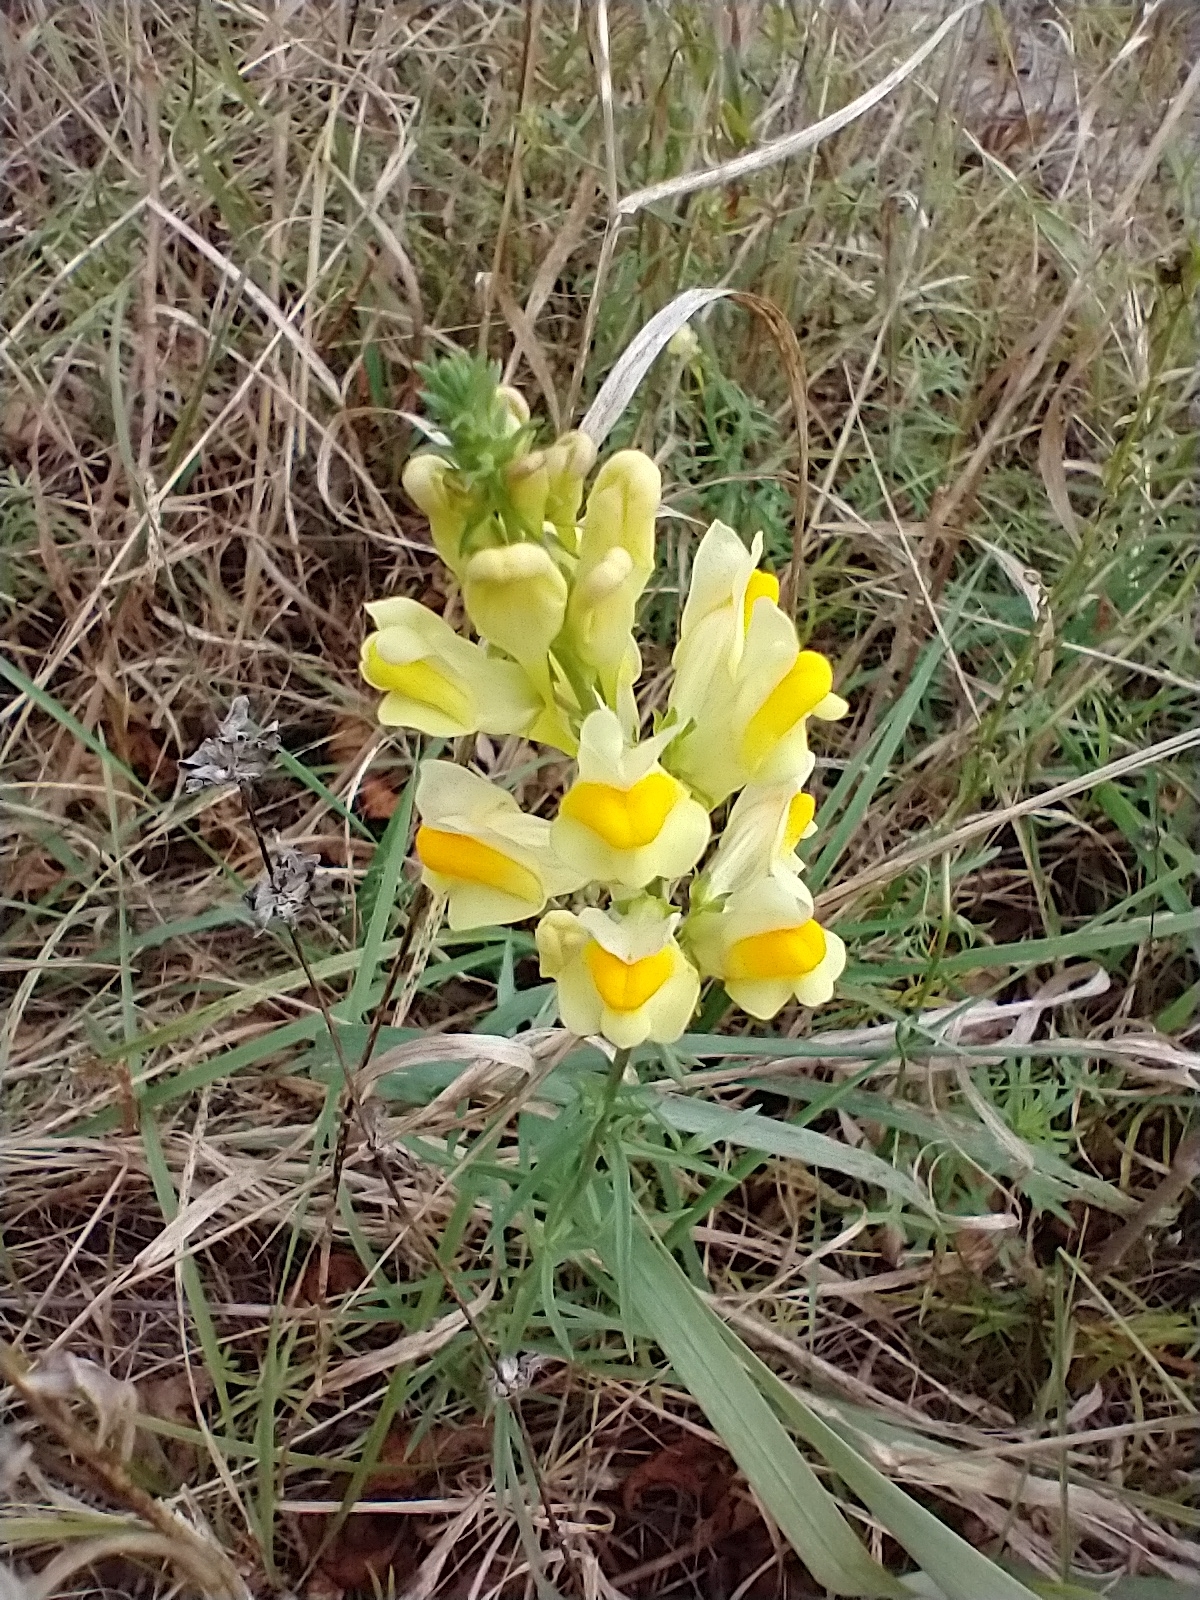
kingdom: Plantae
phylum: Tracheophyta
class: Magnoliopsida
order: Lamiales
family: Plantaginaceae
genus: Linaria
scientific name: Linaria vulgaris
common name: Butter and eggs
